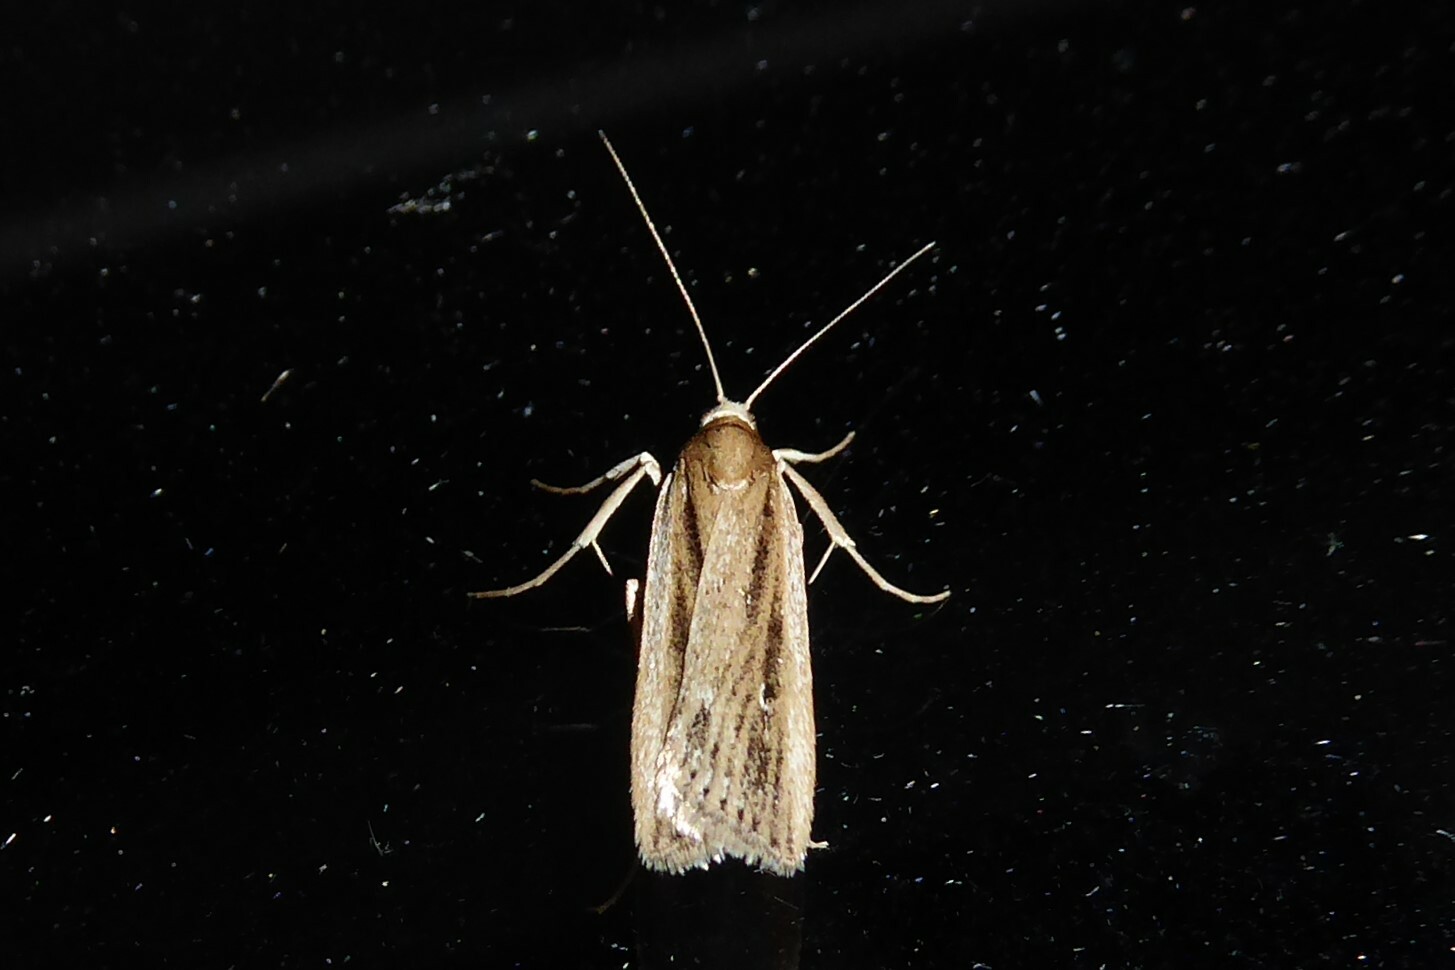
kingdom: Animalia
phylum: Arthropoda
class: Insecta
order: Lepidoptera
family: Crambidae
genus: Eudonia
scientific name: Eudonia sabulosella
